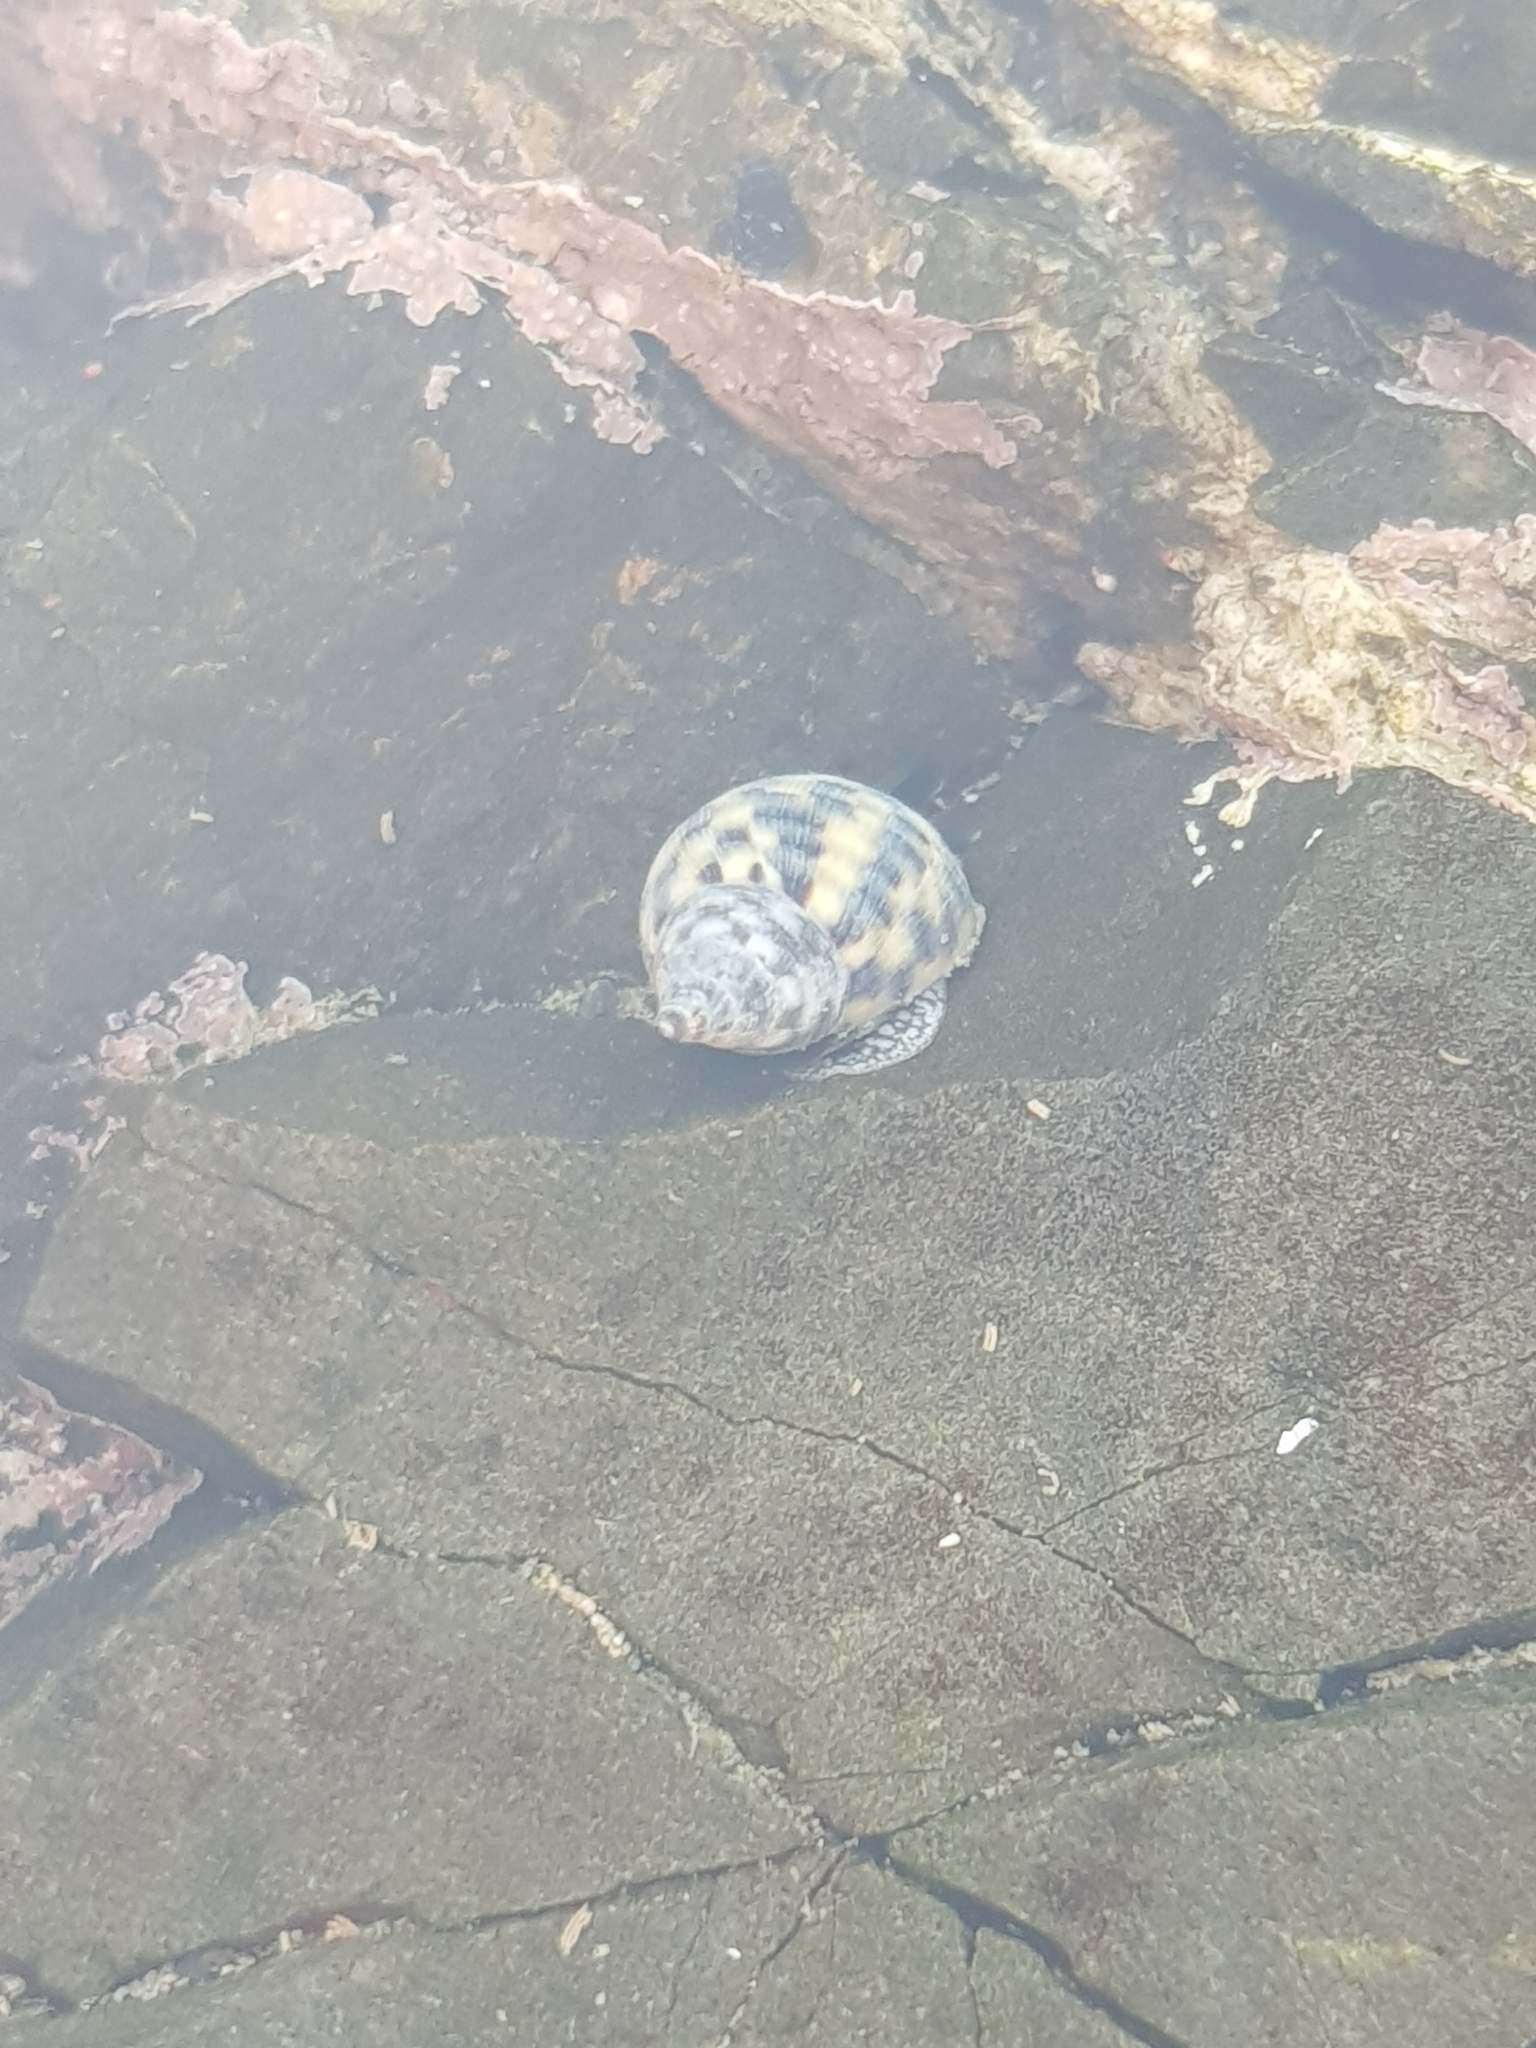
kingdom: Animalia
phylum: Mollusca
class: Gastropoda
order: Neogastropoda
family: Cominellidae
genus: Cominella
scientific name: Cominella maculosa
